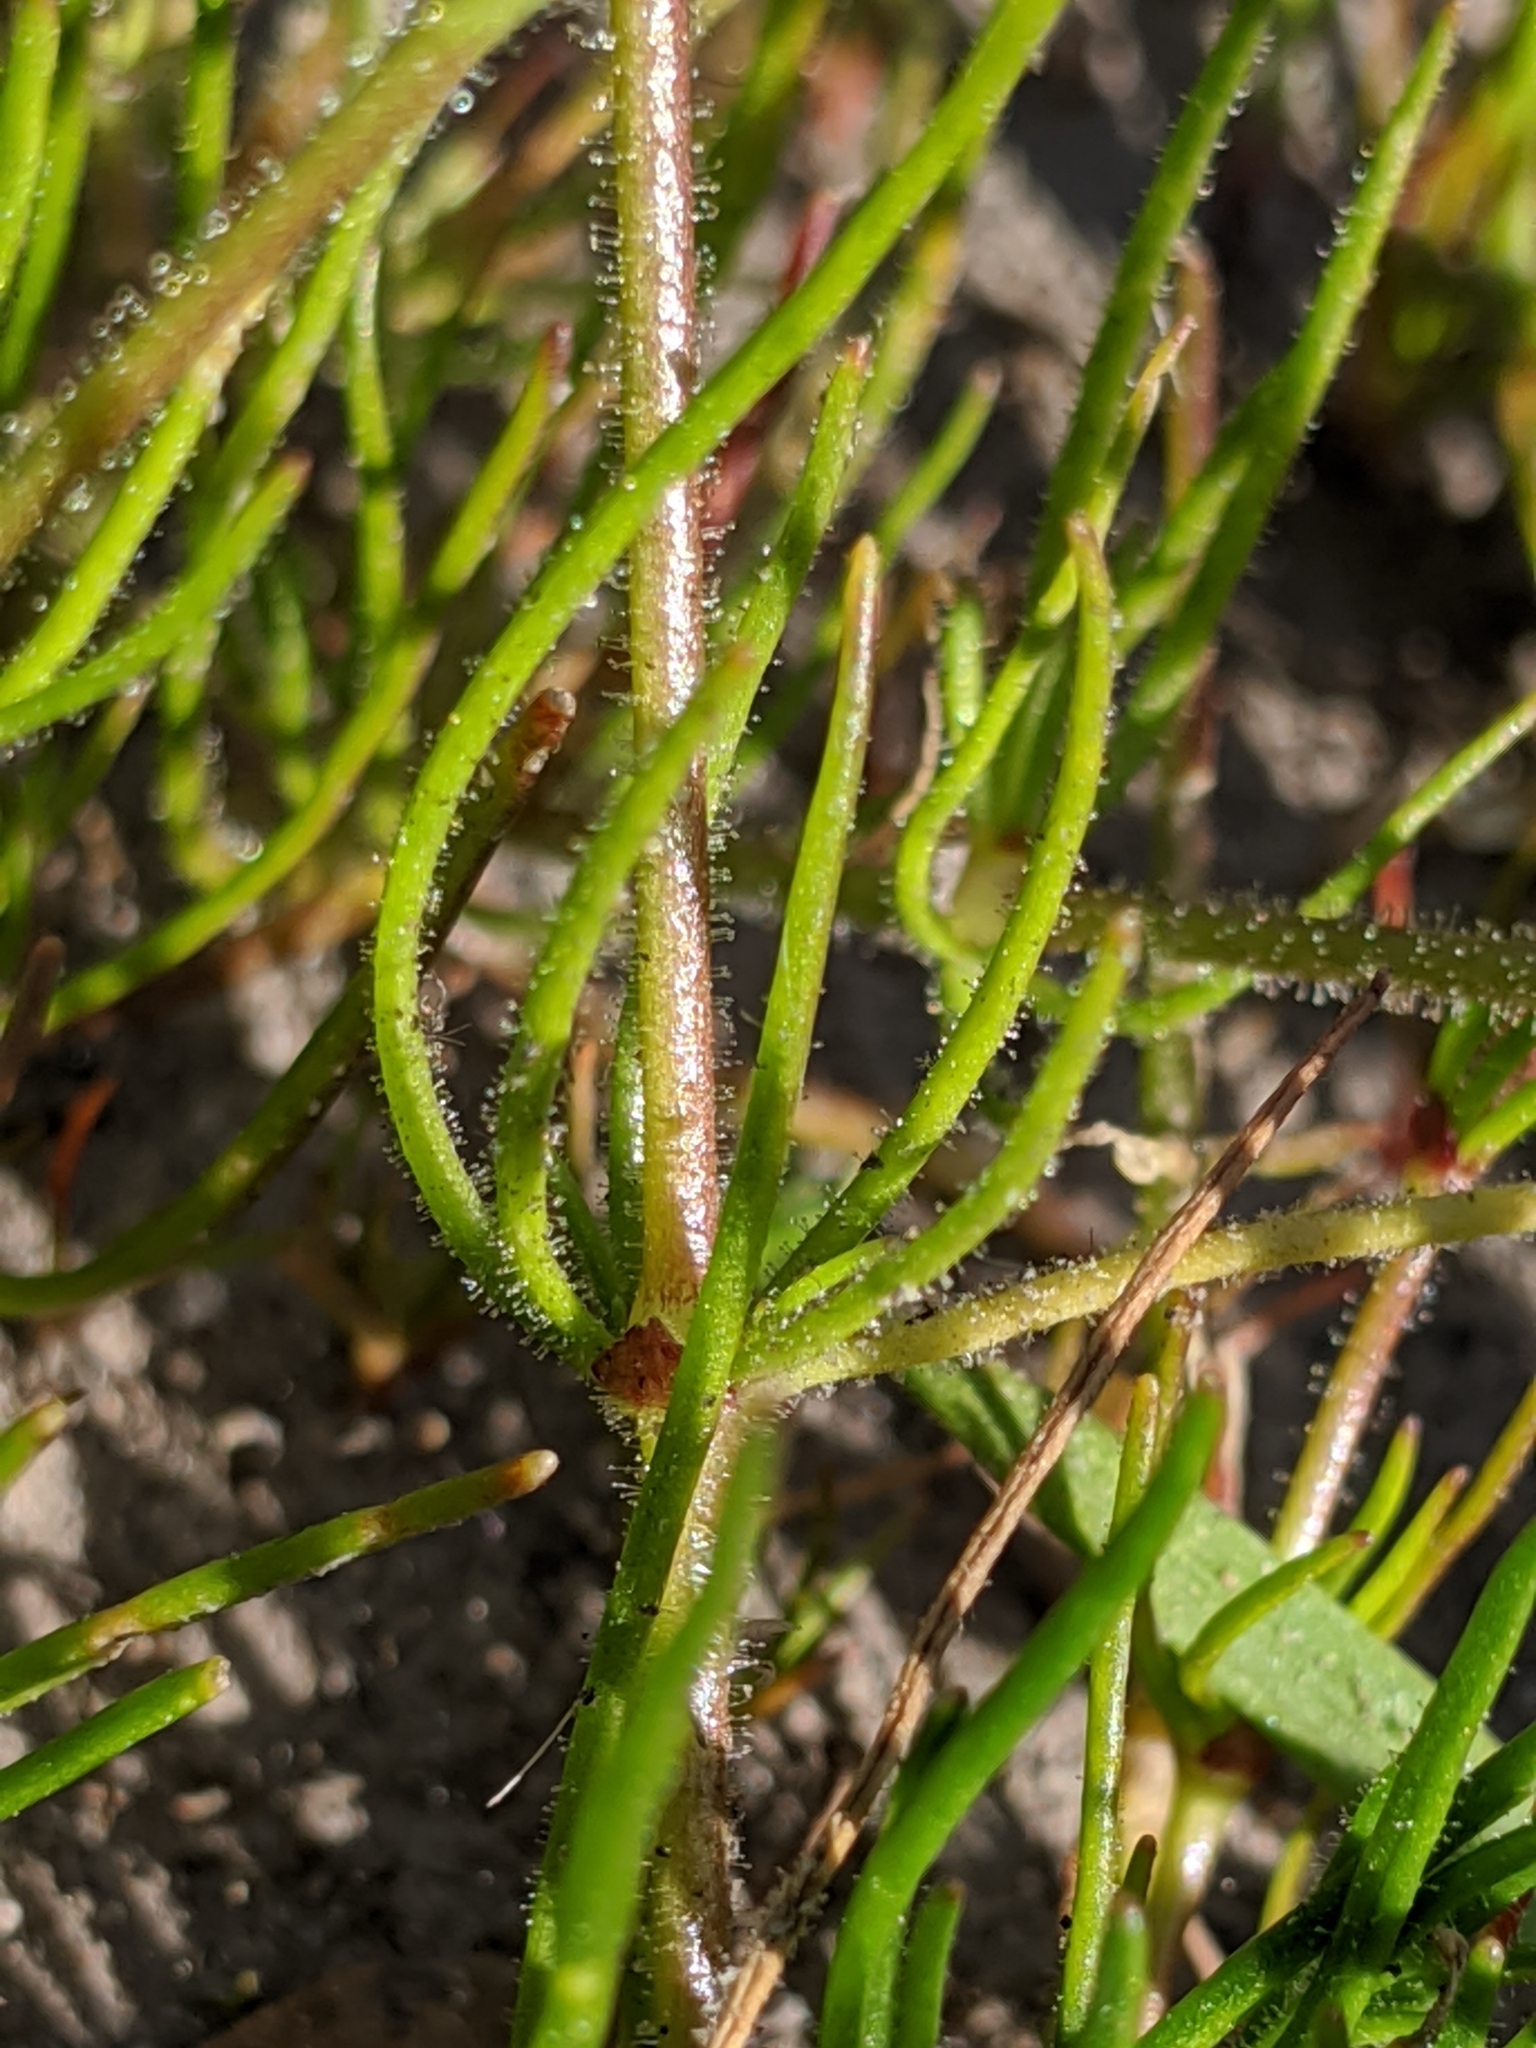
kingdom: Plantae
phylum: Tracheophyta
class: Magnoliopsida
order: Caryophyllales
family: Caryophyllaceae
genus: Spergula
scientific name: Spergula arvensis
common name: Corn spurrey
